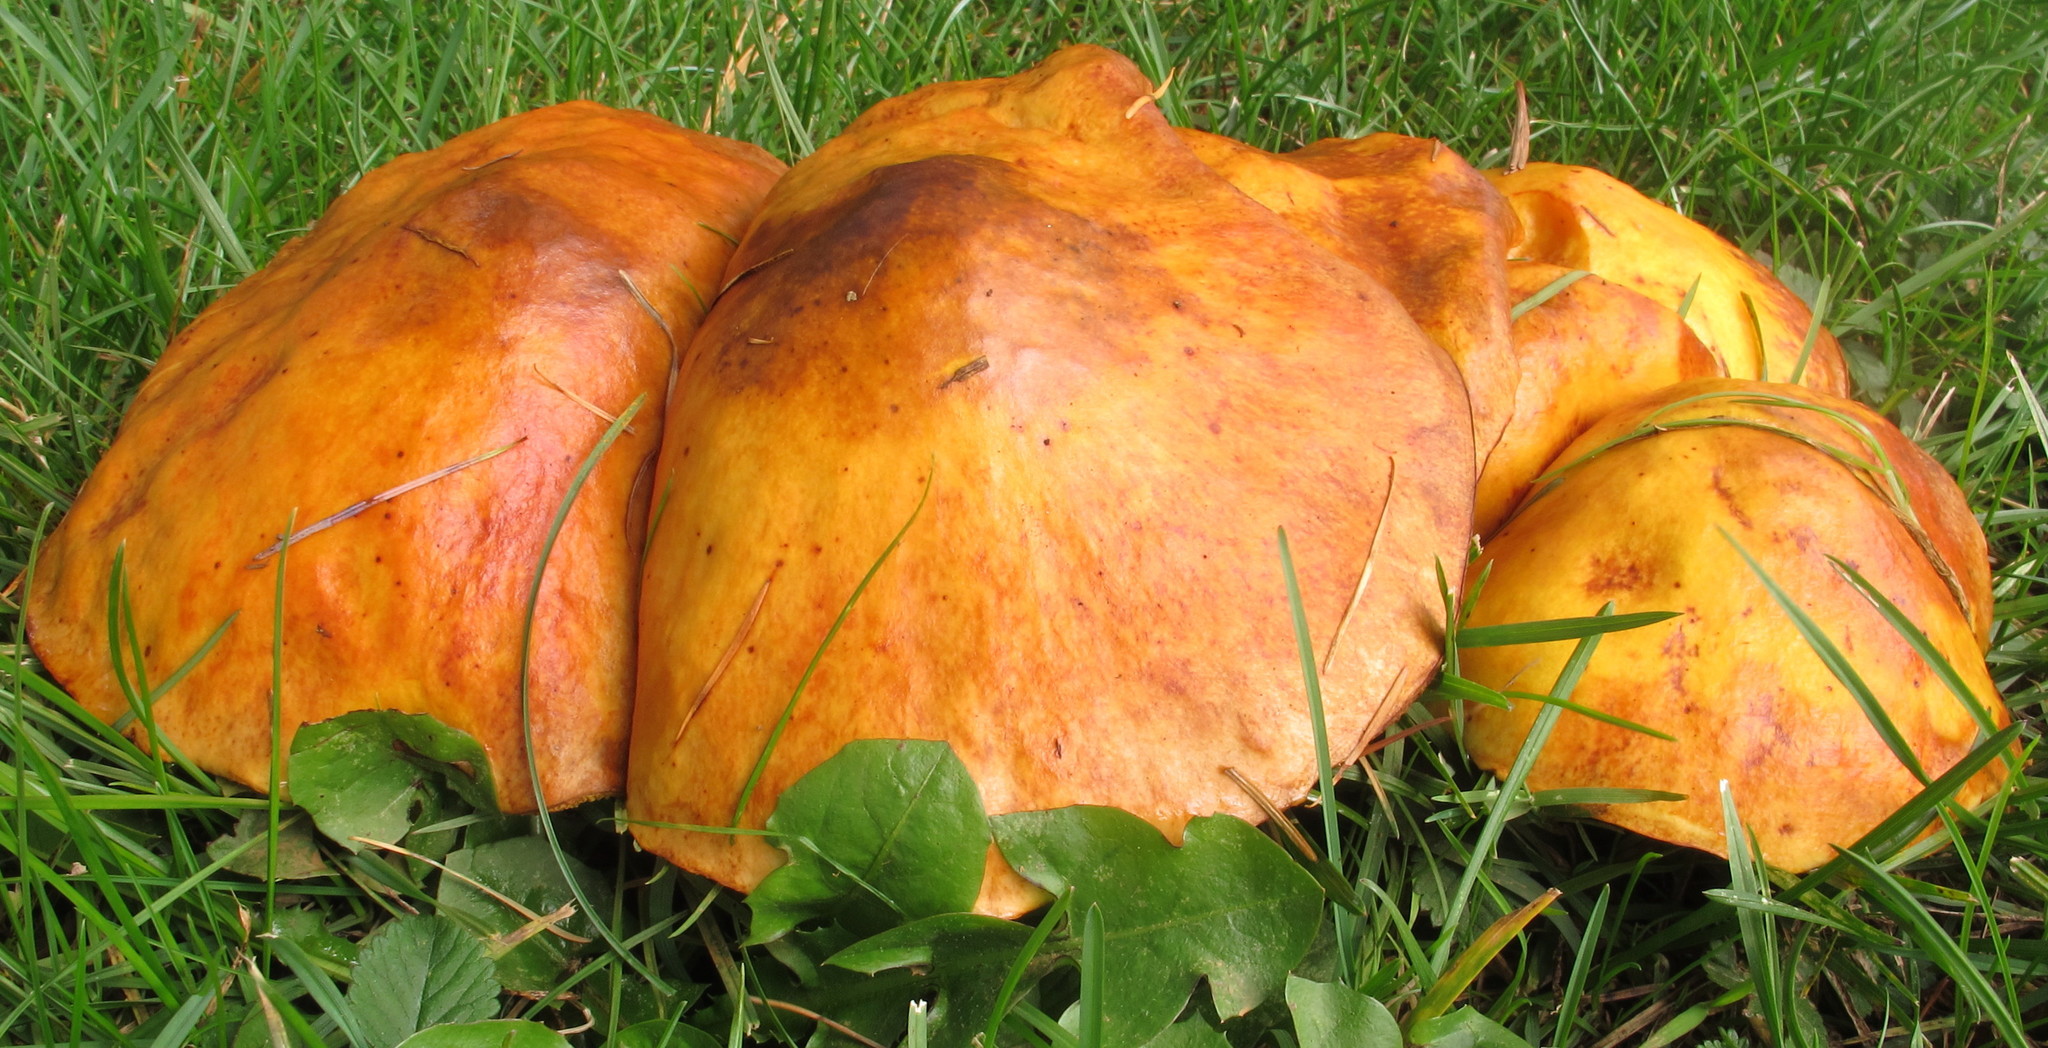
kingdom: Fungi
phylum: Basidiomycota
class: Agaricomycetes
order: Boletales
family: Suillaceae
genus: Suillus
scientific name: Suillus grevillei
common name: Larch bolete
